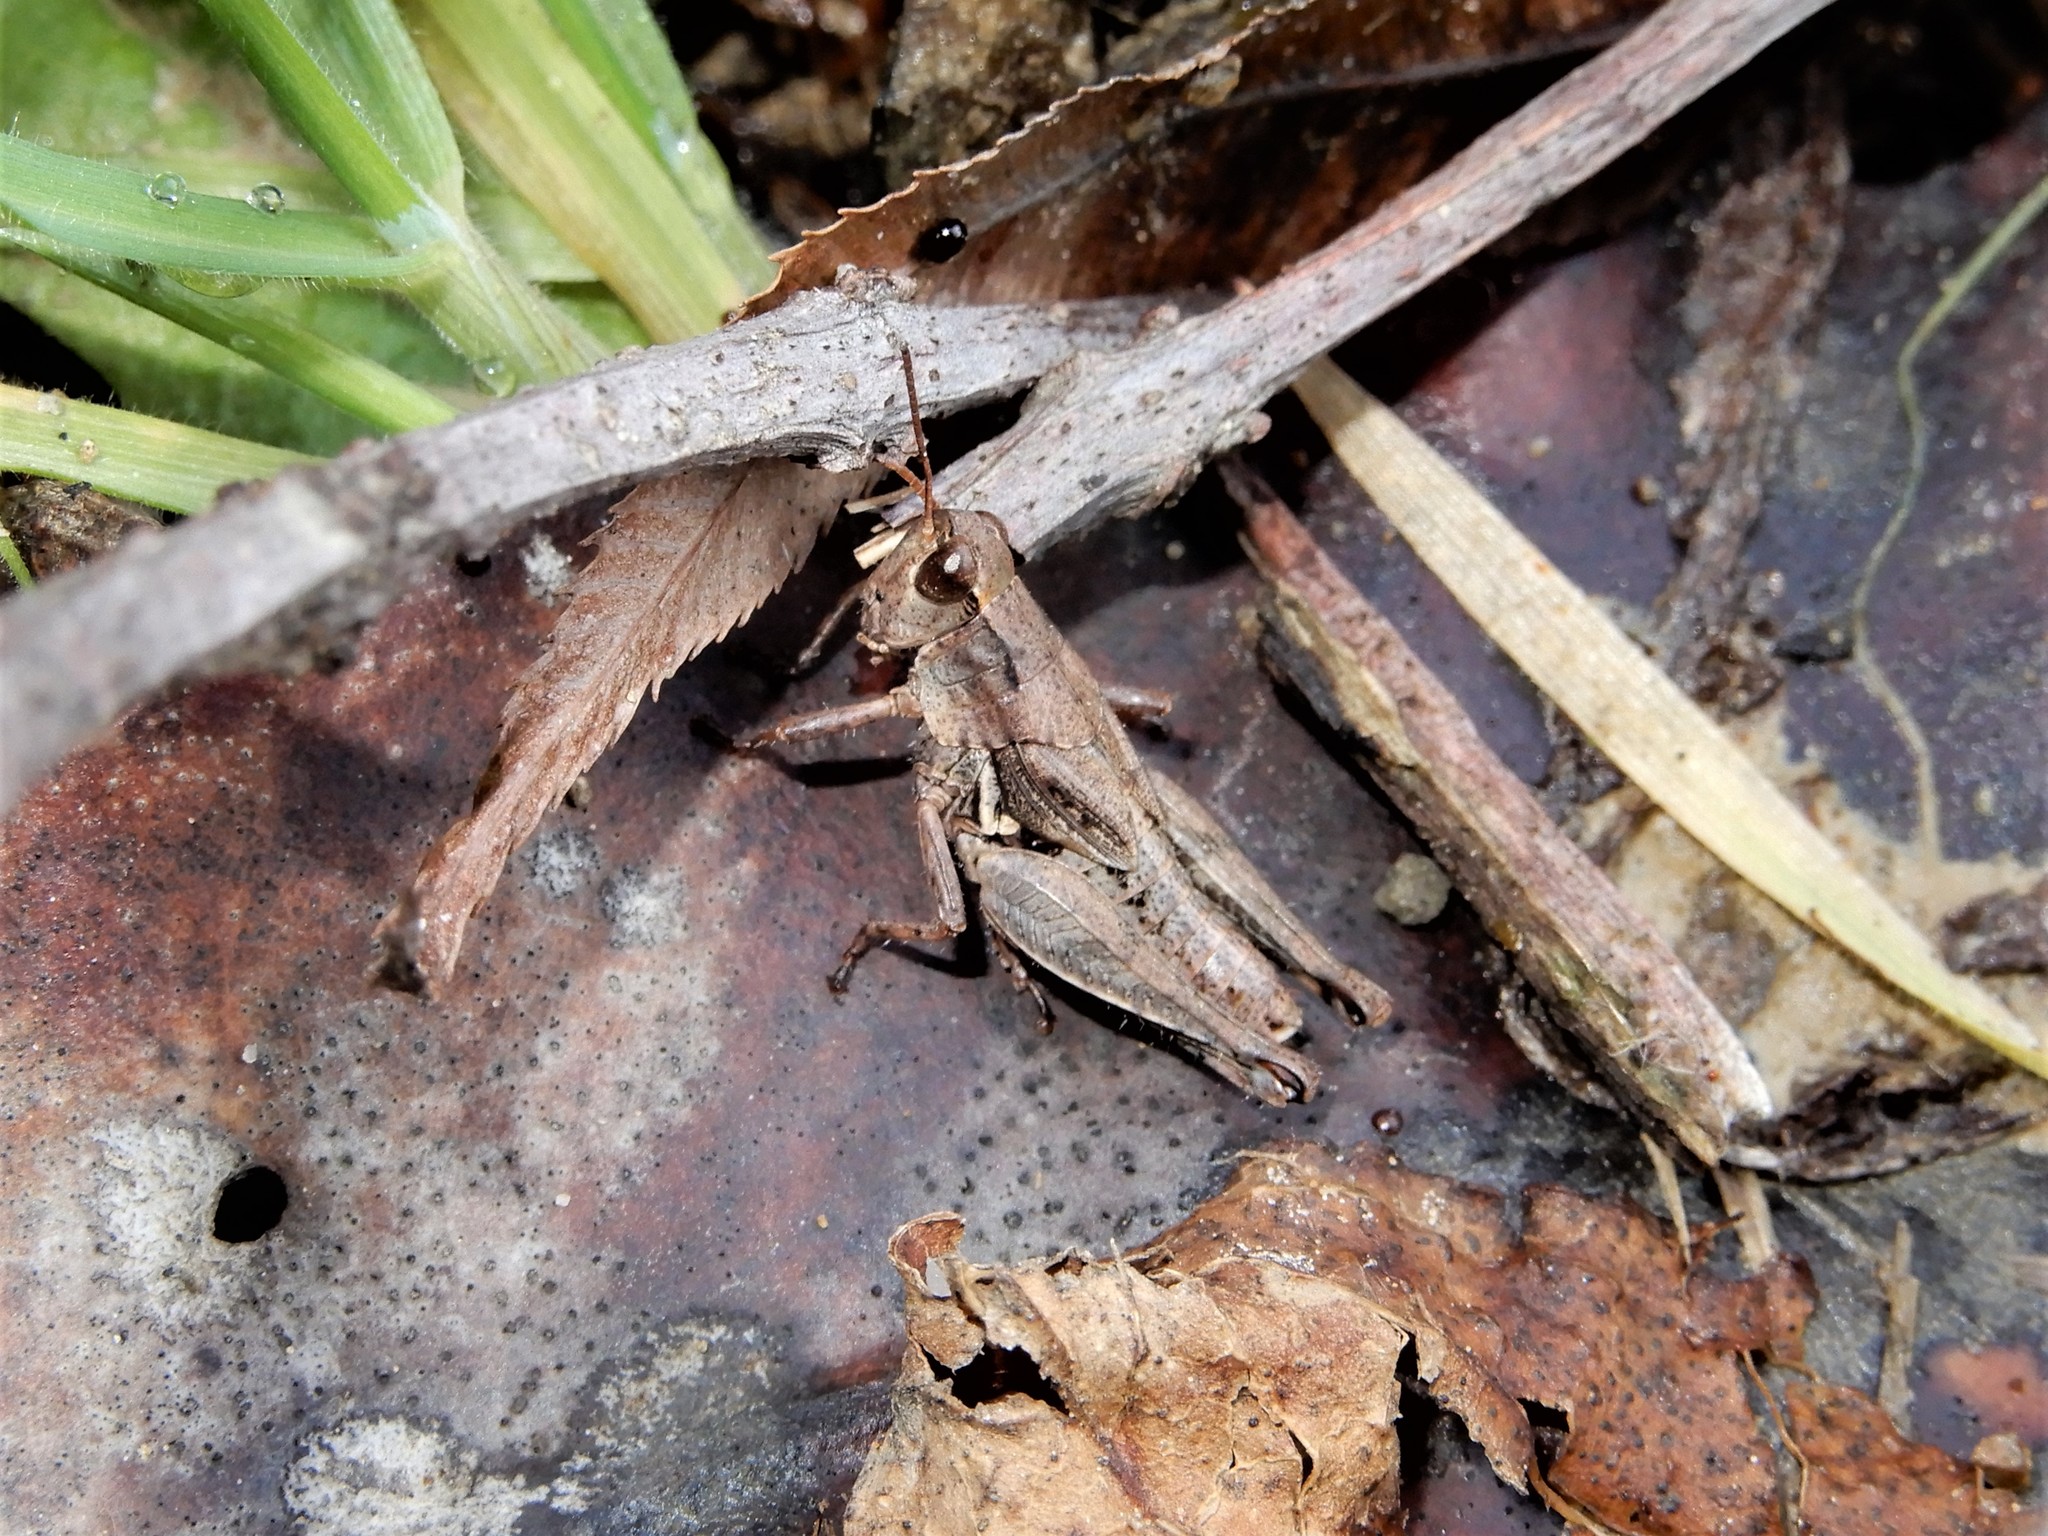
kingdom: Animalia
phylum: Arthropoda
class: Insecta
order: Orthoptera
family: Acrididae
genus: Phaulacridium
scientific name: Phaulacridium marginale
